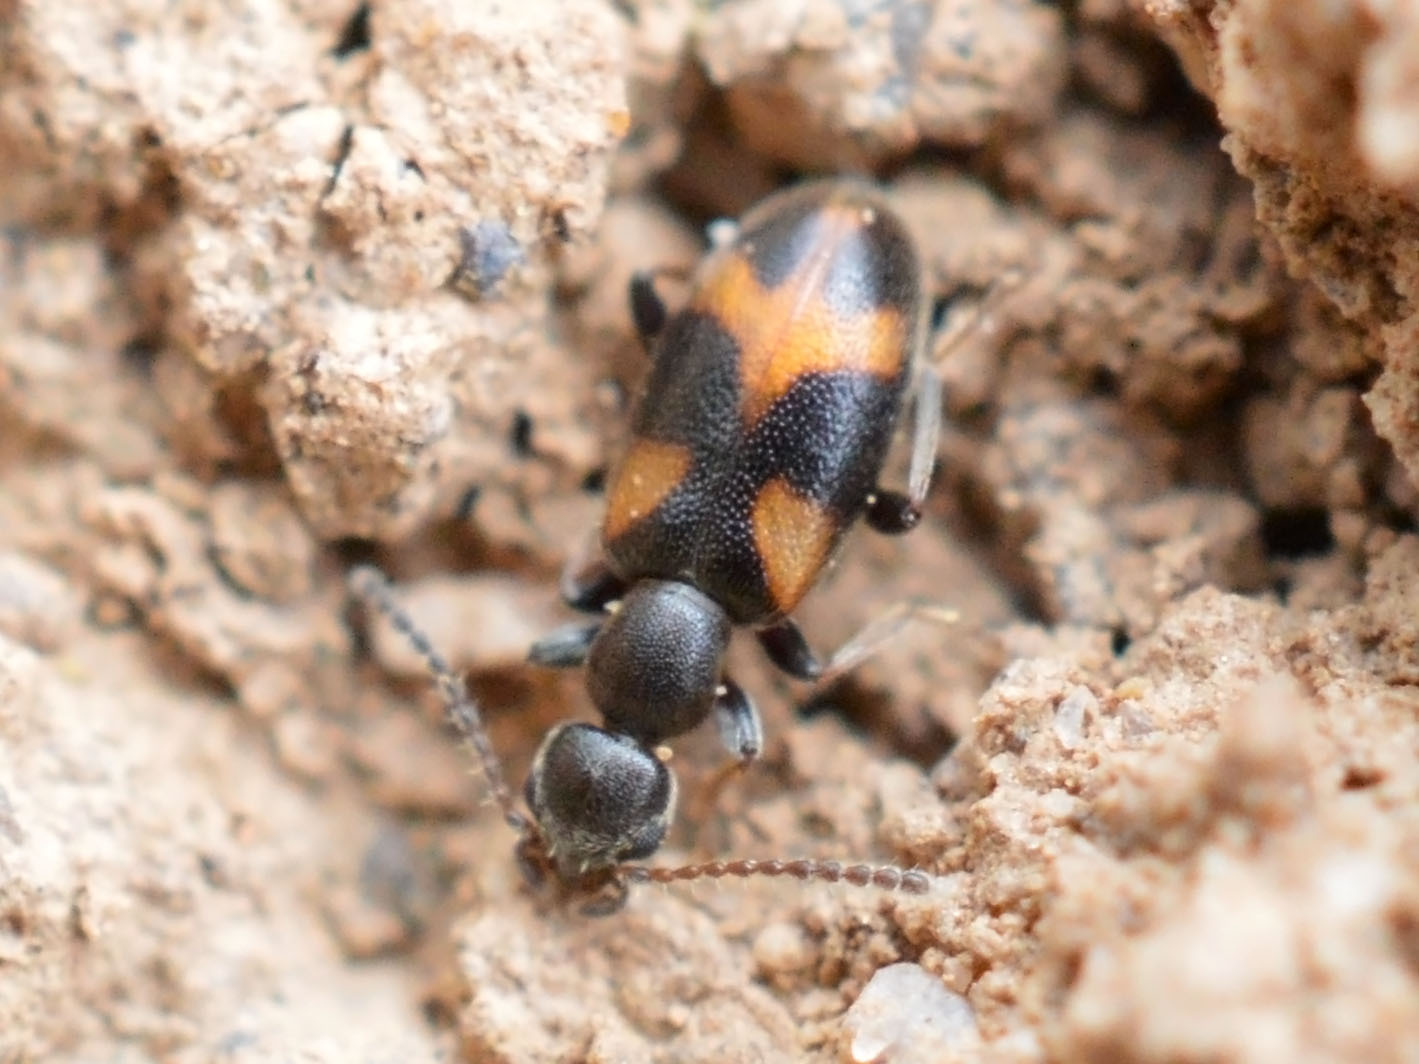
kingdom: Animalia
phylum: Arthropoda
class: Insecta
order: Coleoptera
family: Anthicidae
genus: Anthicus
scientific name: Anthicus antherinus
